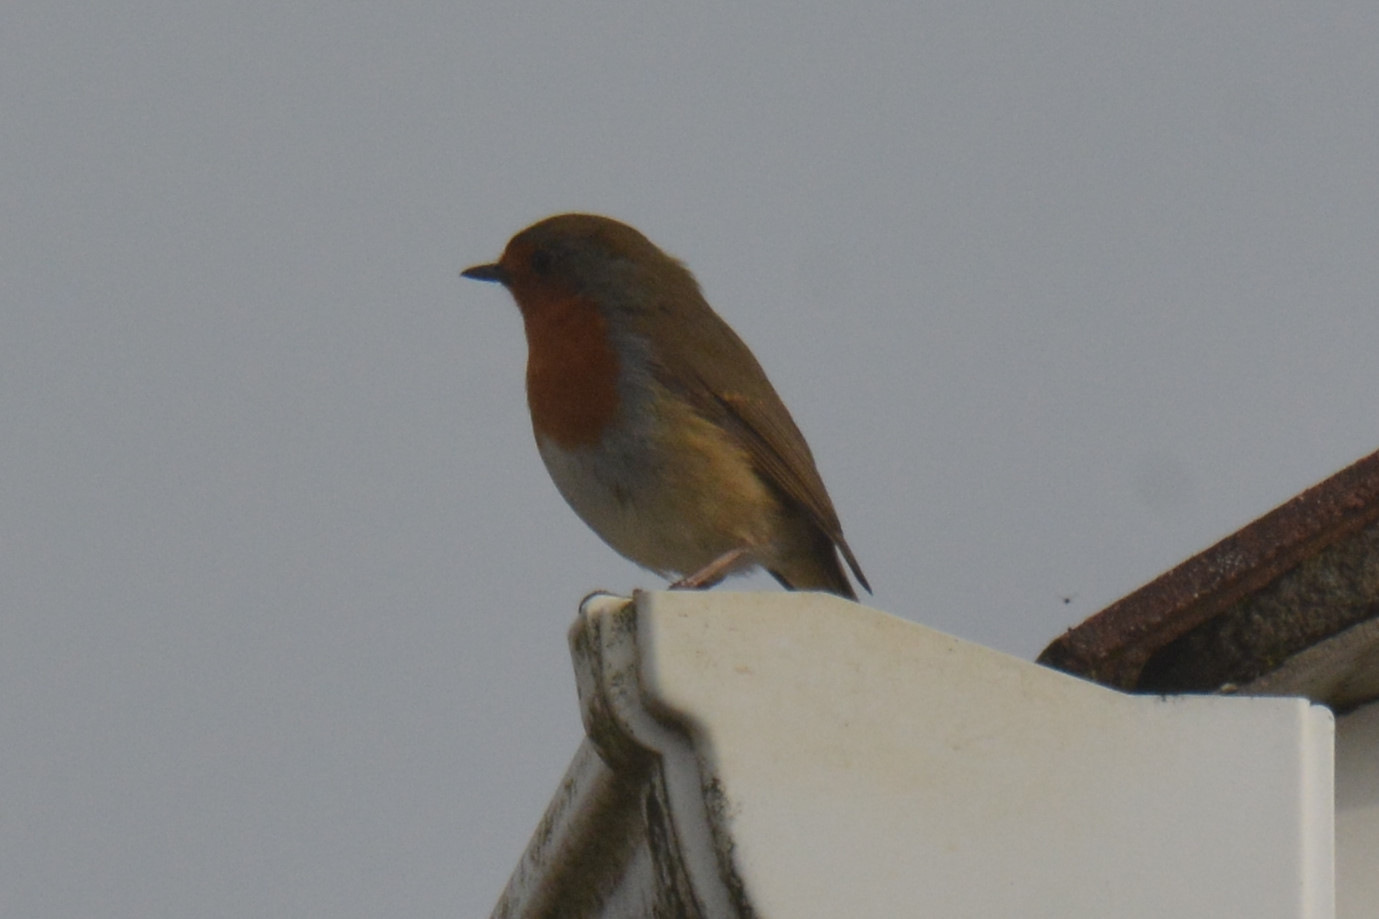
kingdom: Animalia
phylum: Chordata
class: Aves
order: Passeriformes
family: Muscicapidae
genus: Erithacus
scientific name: Erithacus rubecula
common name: European robin
